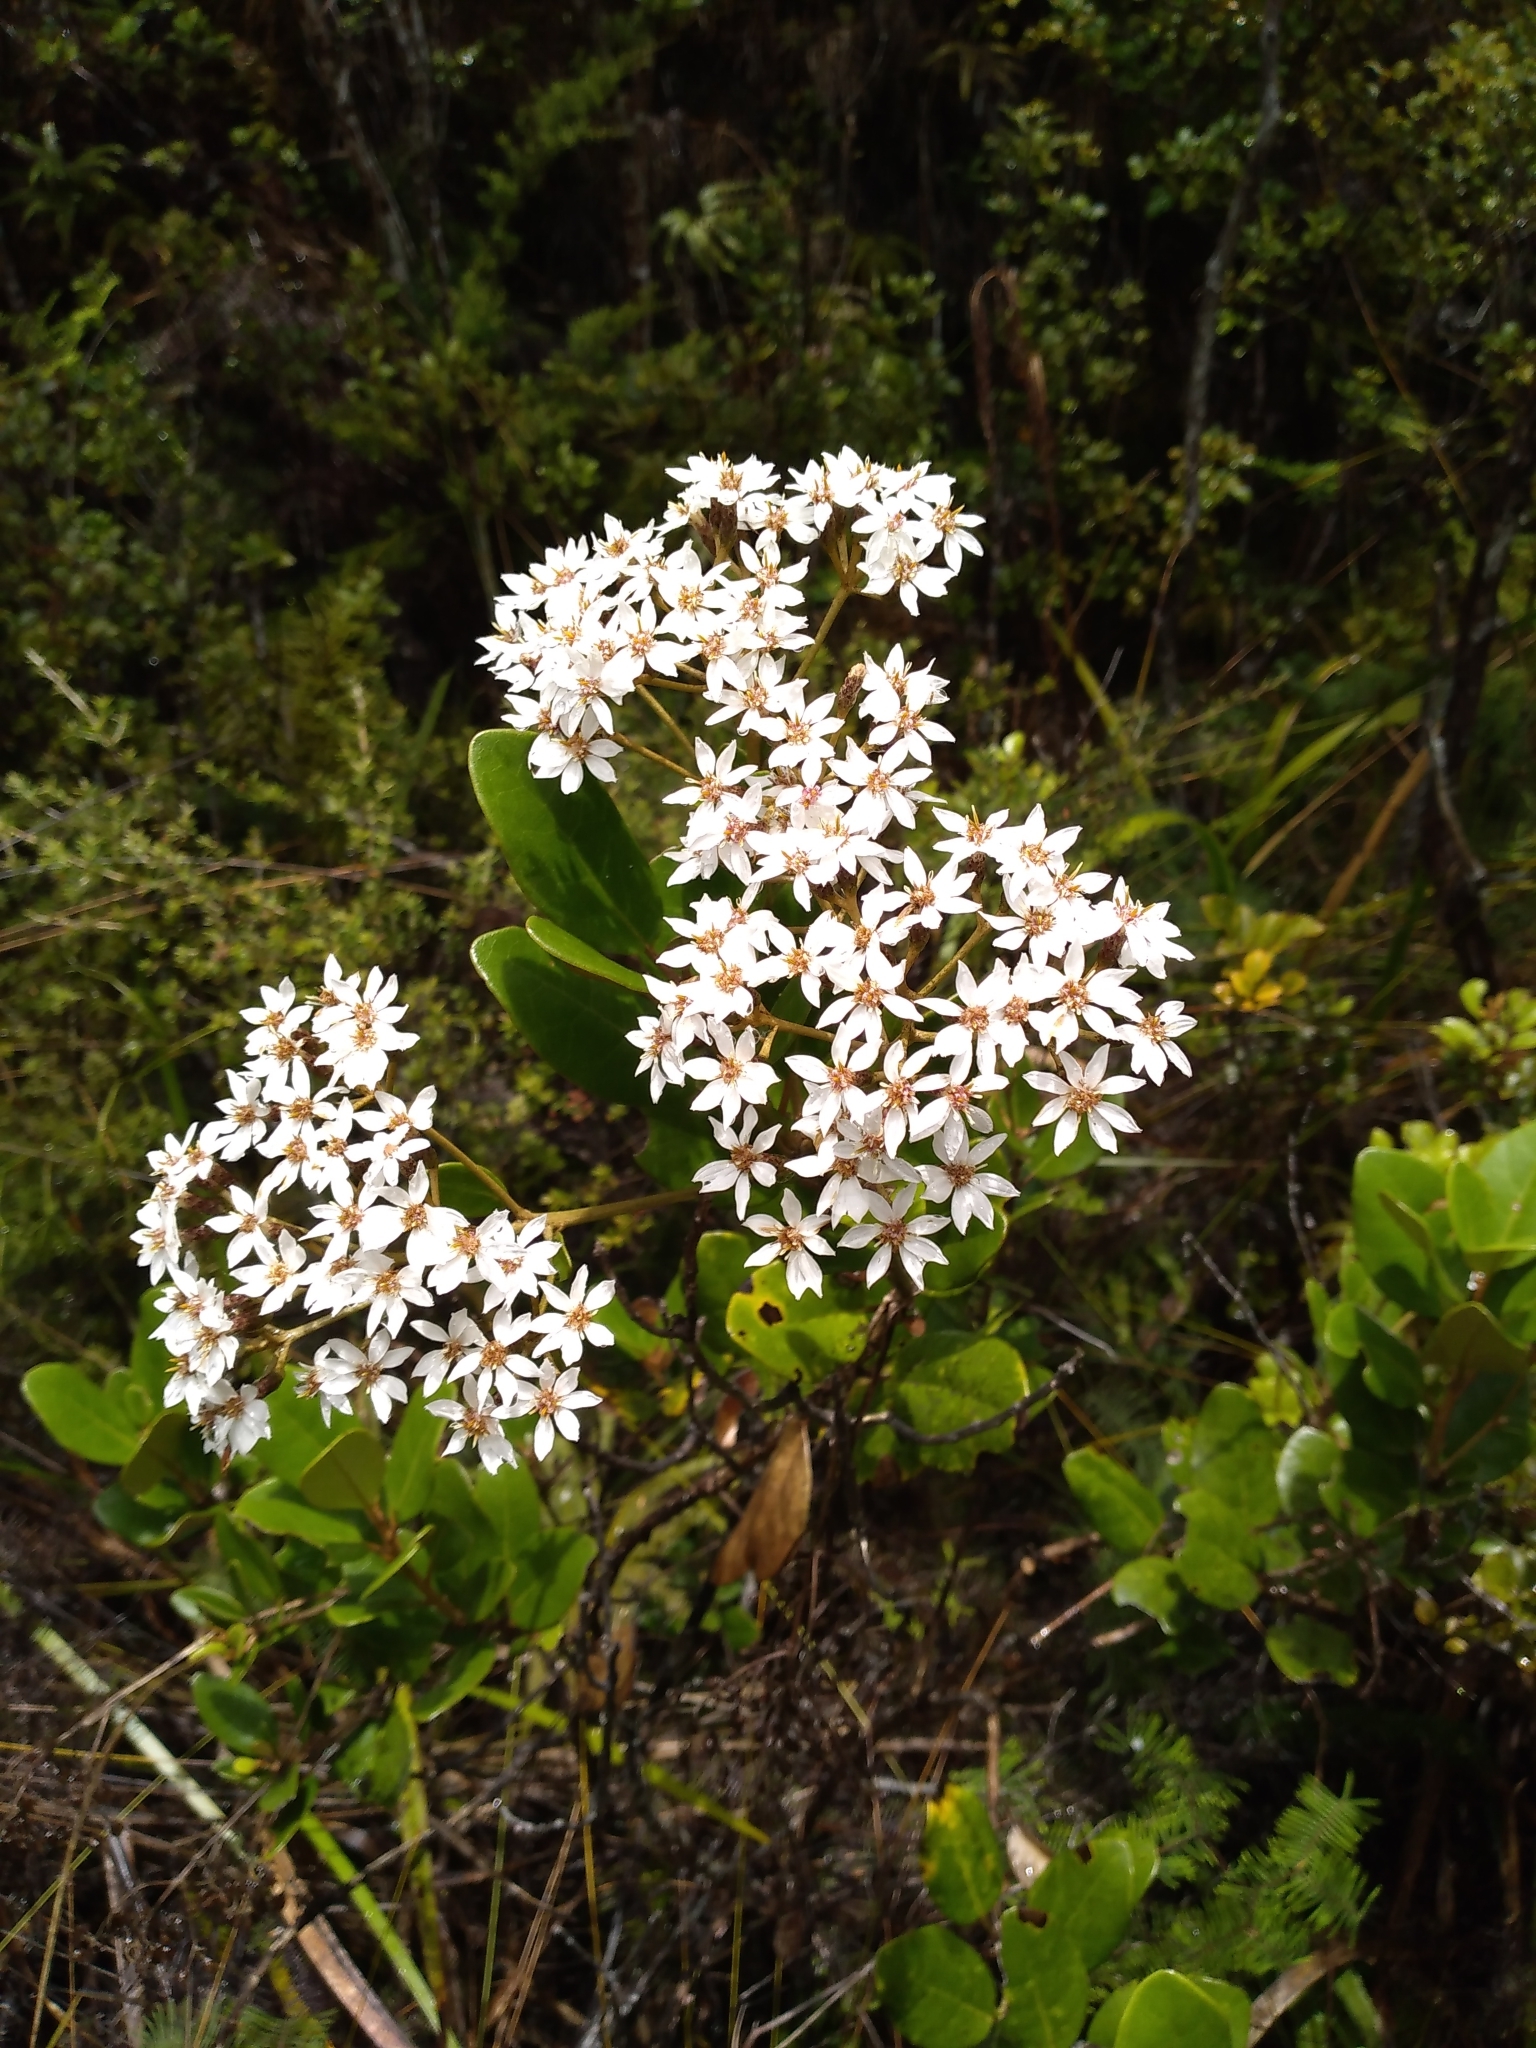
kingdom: Plantae
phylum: Tracheophyta
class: Magnoliopsida
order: Asterales
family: Asteraceae
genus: Olearia
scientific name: Olearia townsonii
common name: Coromandel tree daisy
